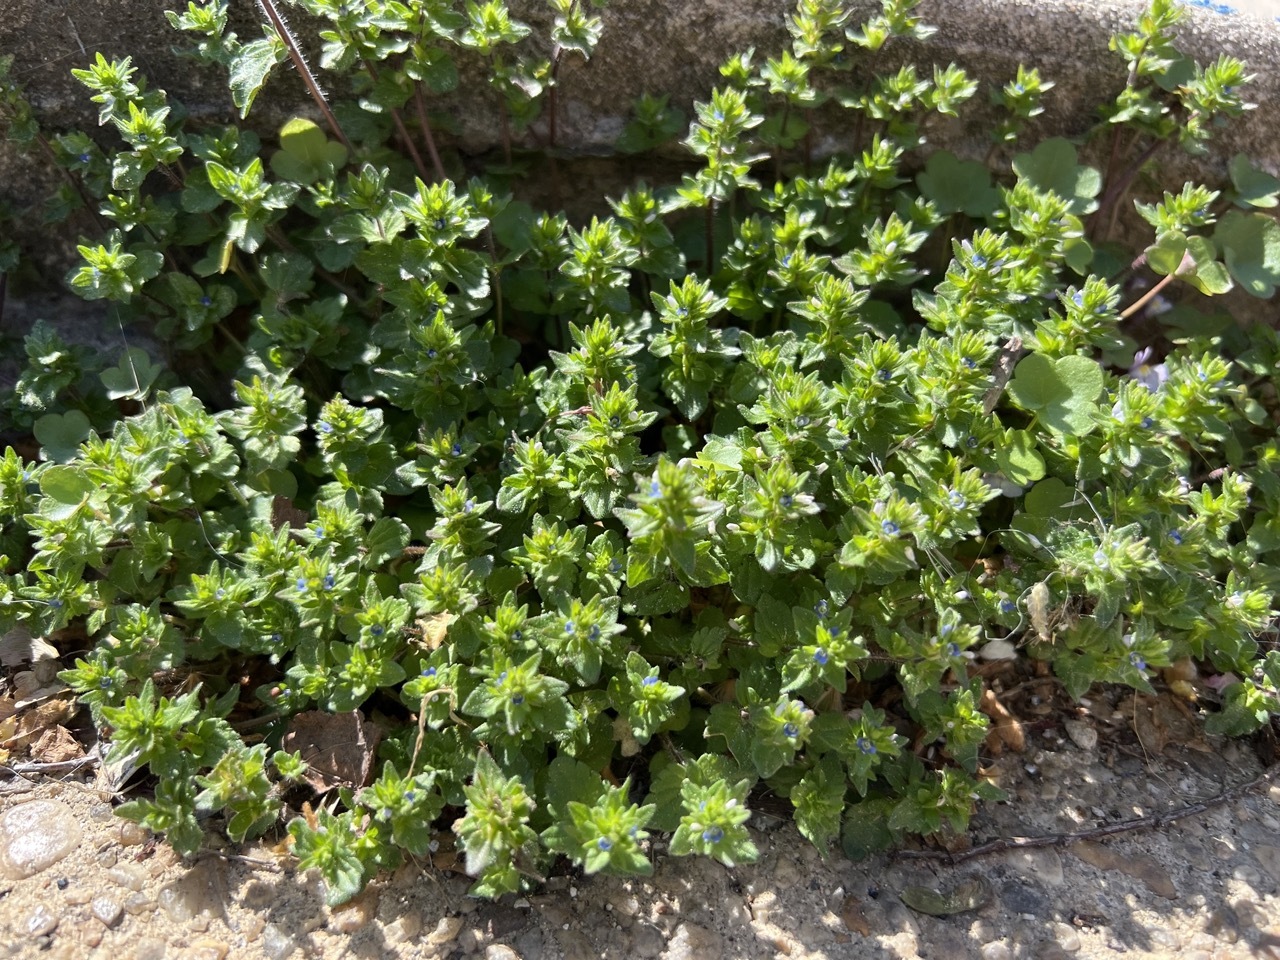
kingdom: Plantae
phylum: Tracheophyta
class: Magnoliopsida
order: Lamiales
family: Plantaginaceae
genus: Veronica
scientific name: Veronica arvensis
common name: Corn speedwell
